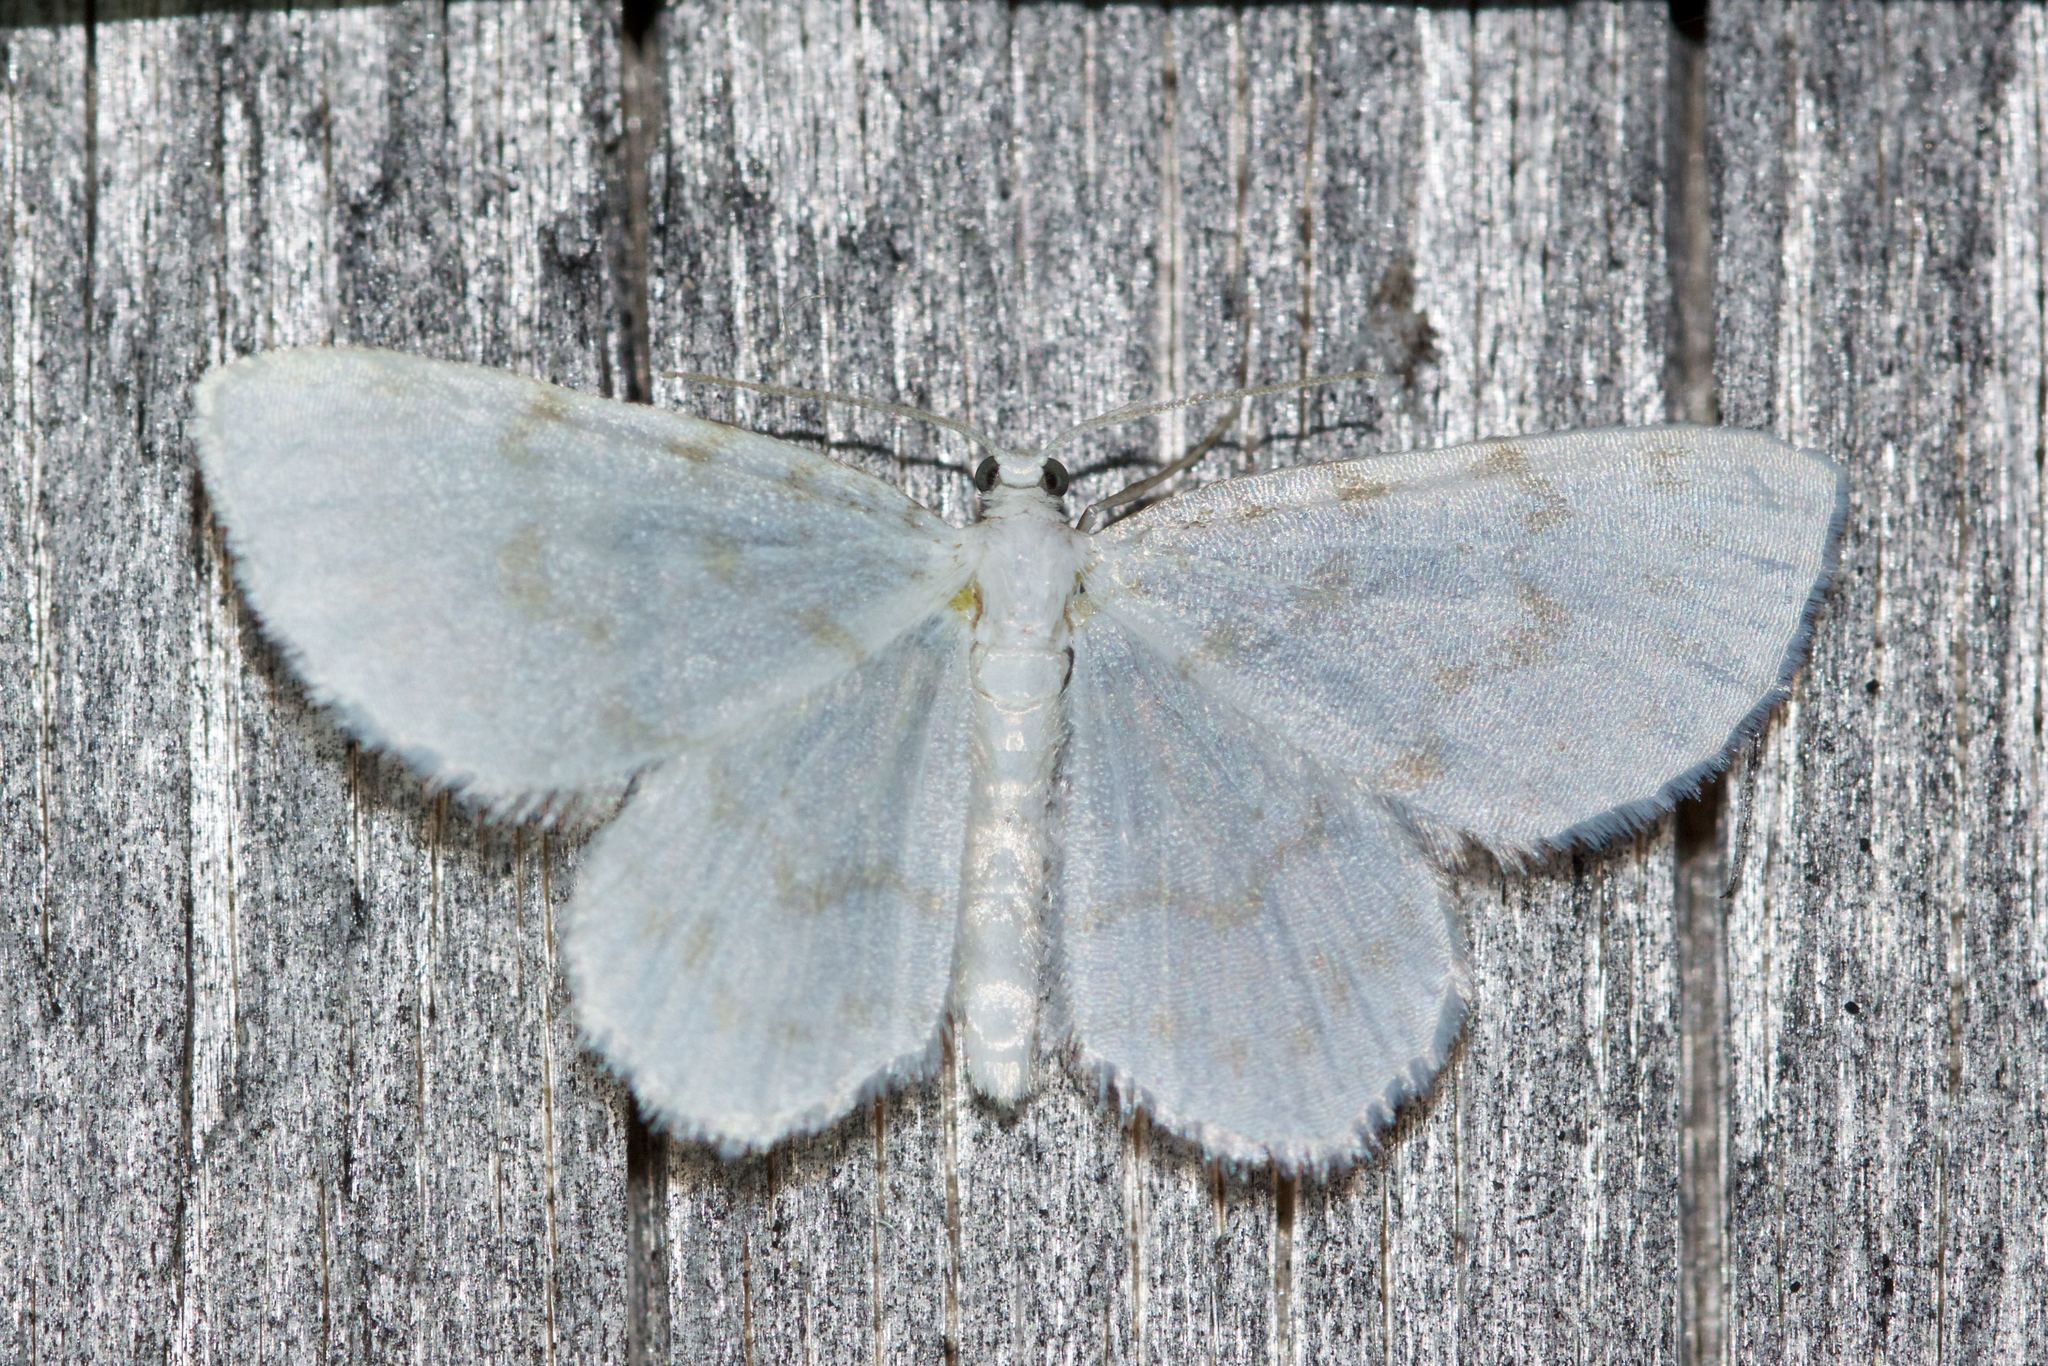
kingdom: Animalia
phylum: Arthropoda
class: Insecta
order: Lepidoptera
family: Geometridae
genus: Hydrelia
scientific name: Hydrelia albifera
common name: Fragile white carpet
